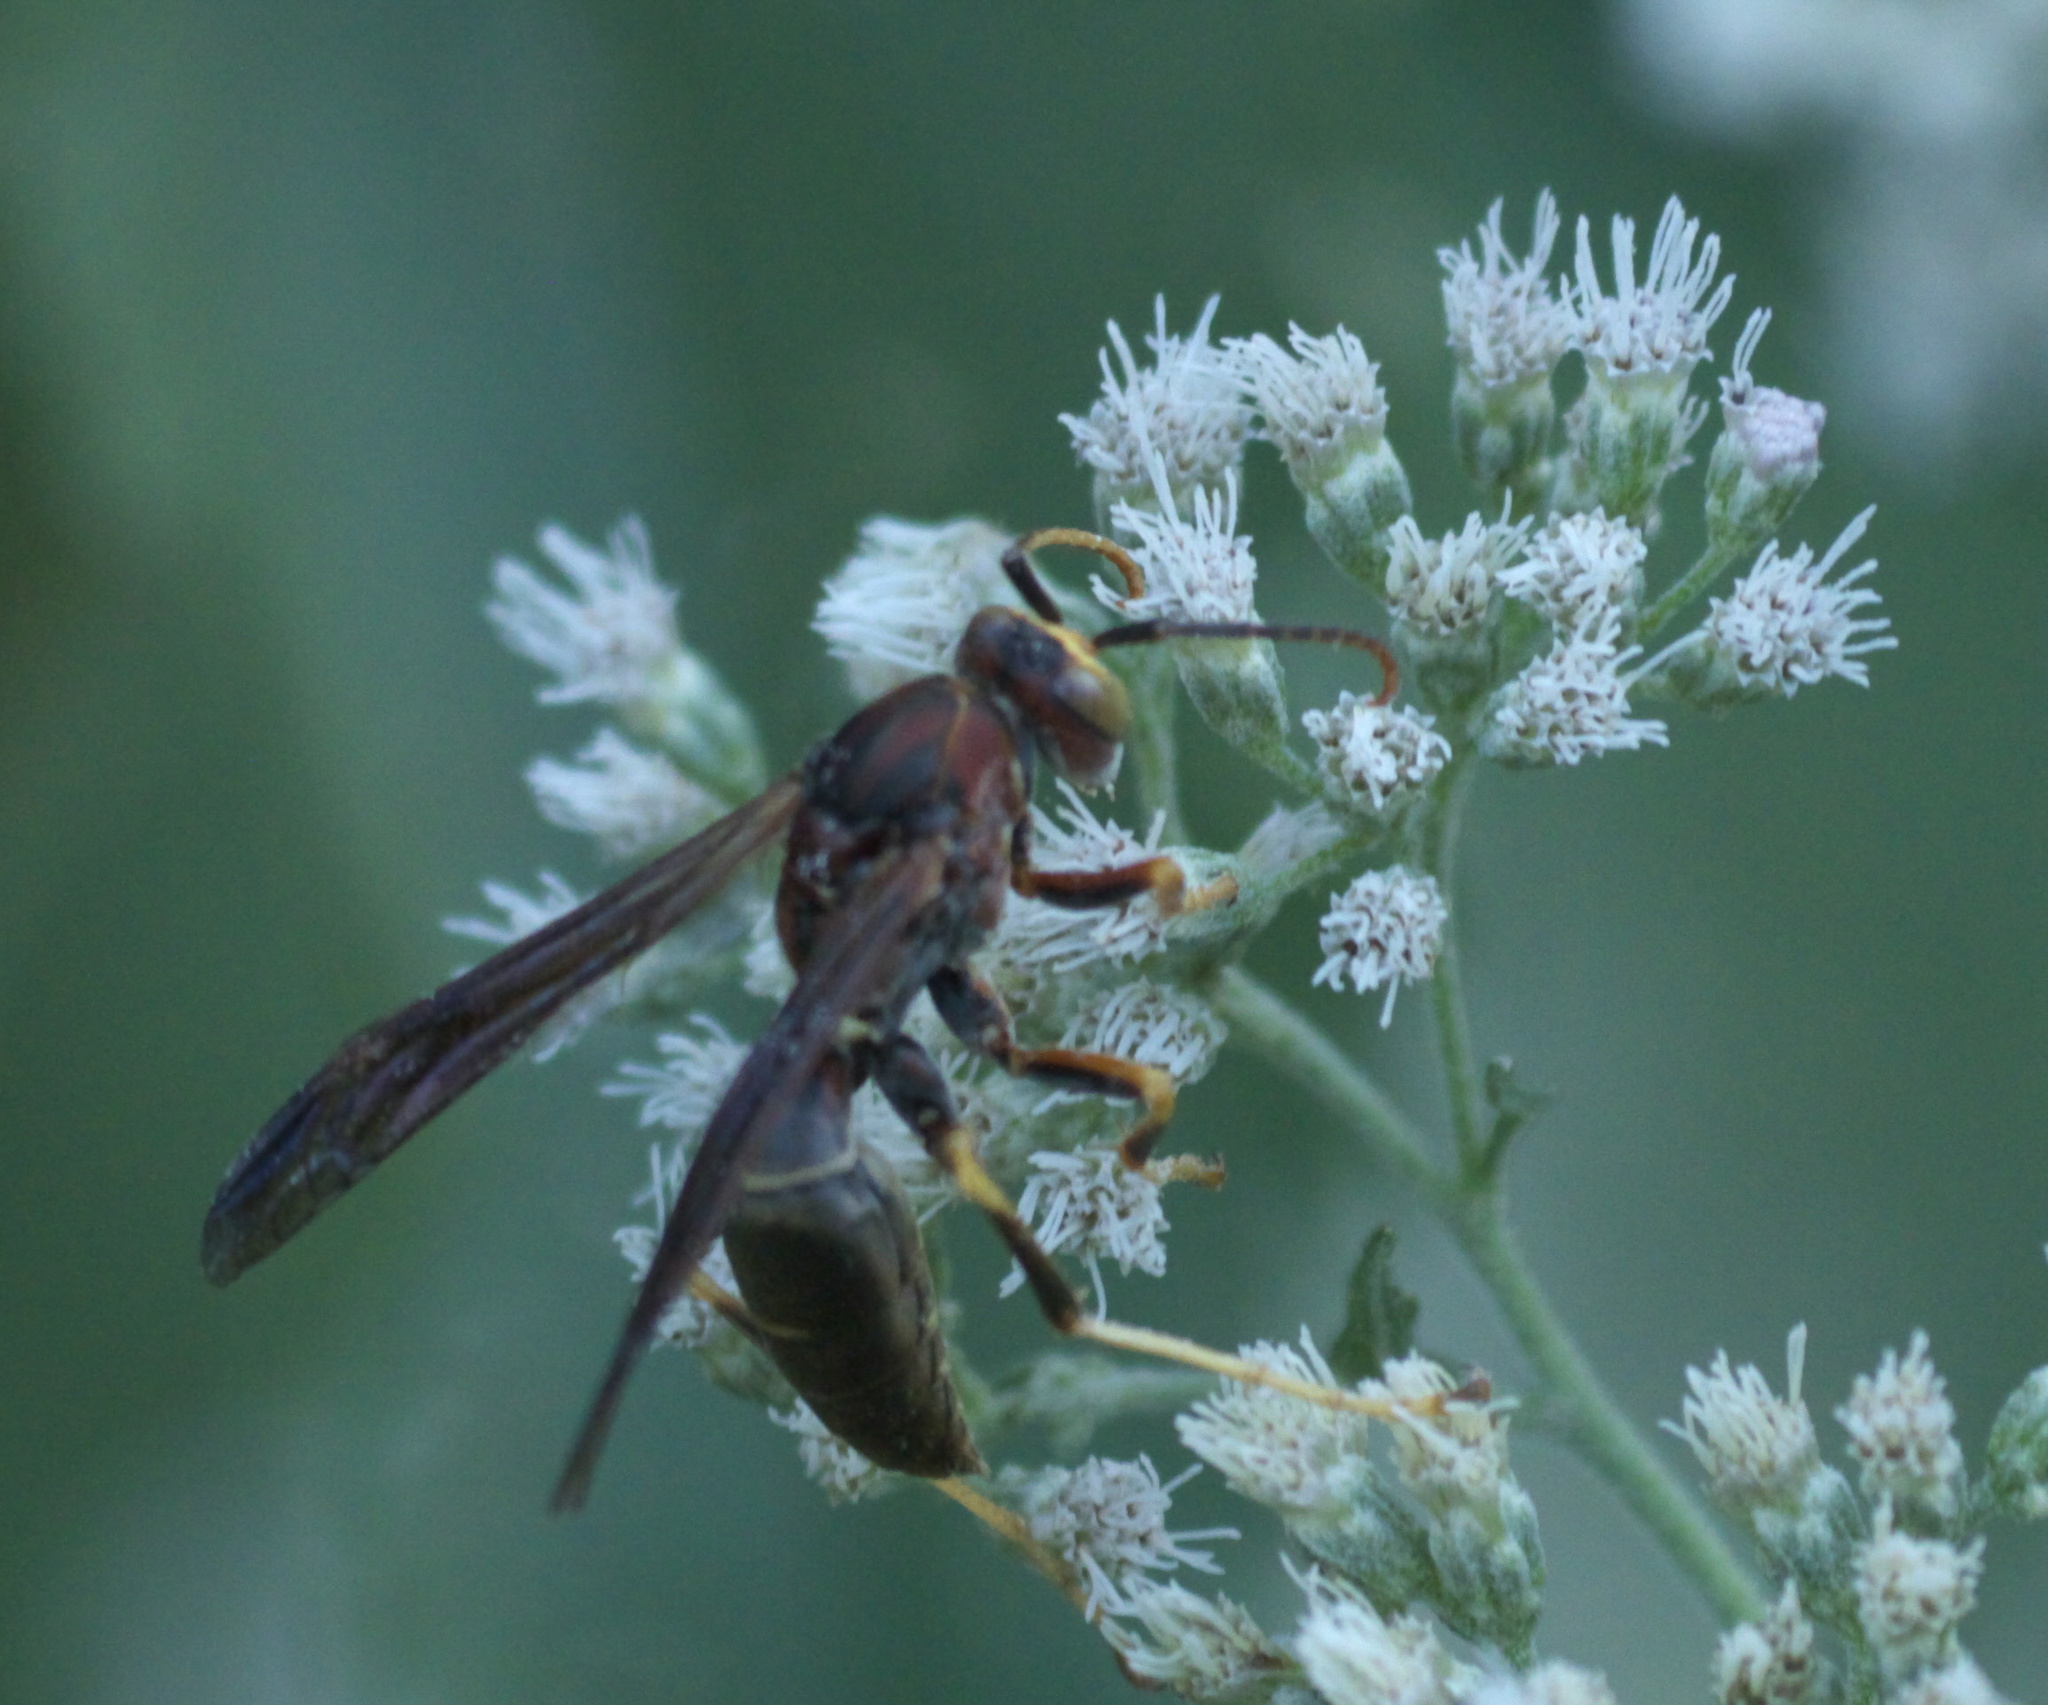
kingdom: Animalia
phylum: Arthropoda
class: Insecta
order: Hymenoptera
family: Eumenidae
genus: Polistes
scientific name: Polistes metricus
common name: Metric paper wasp
